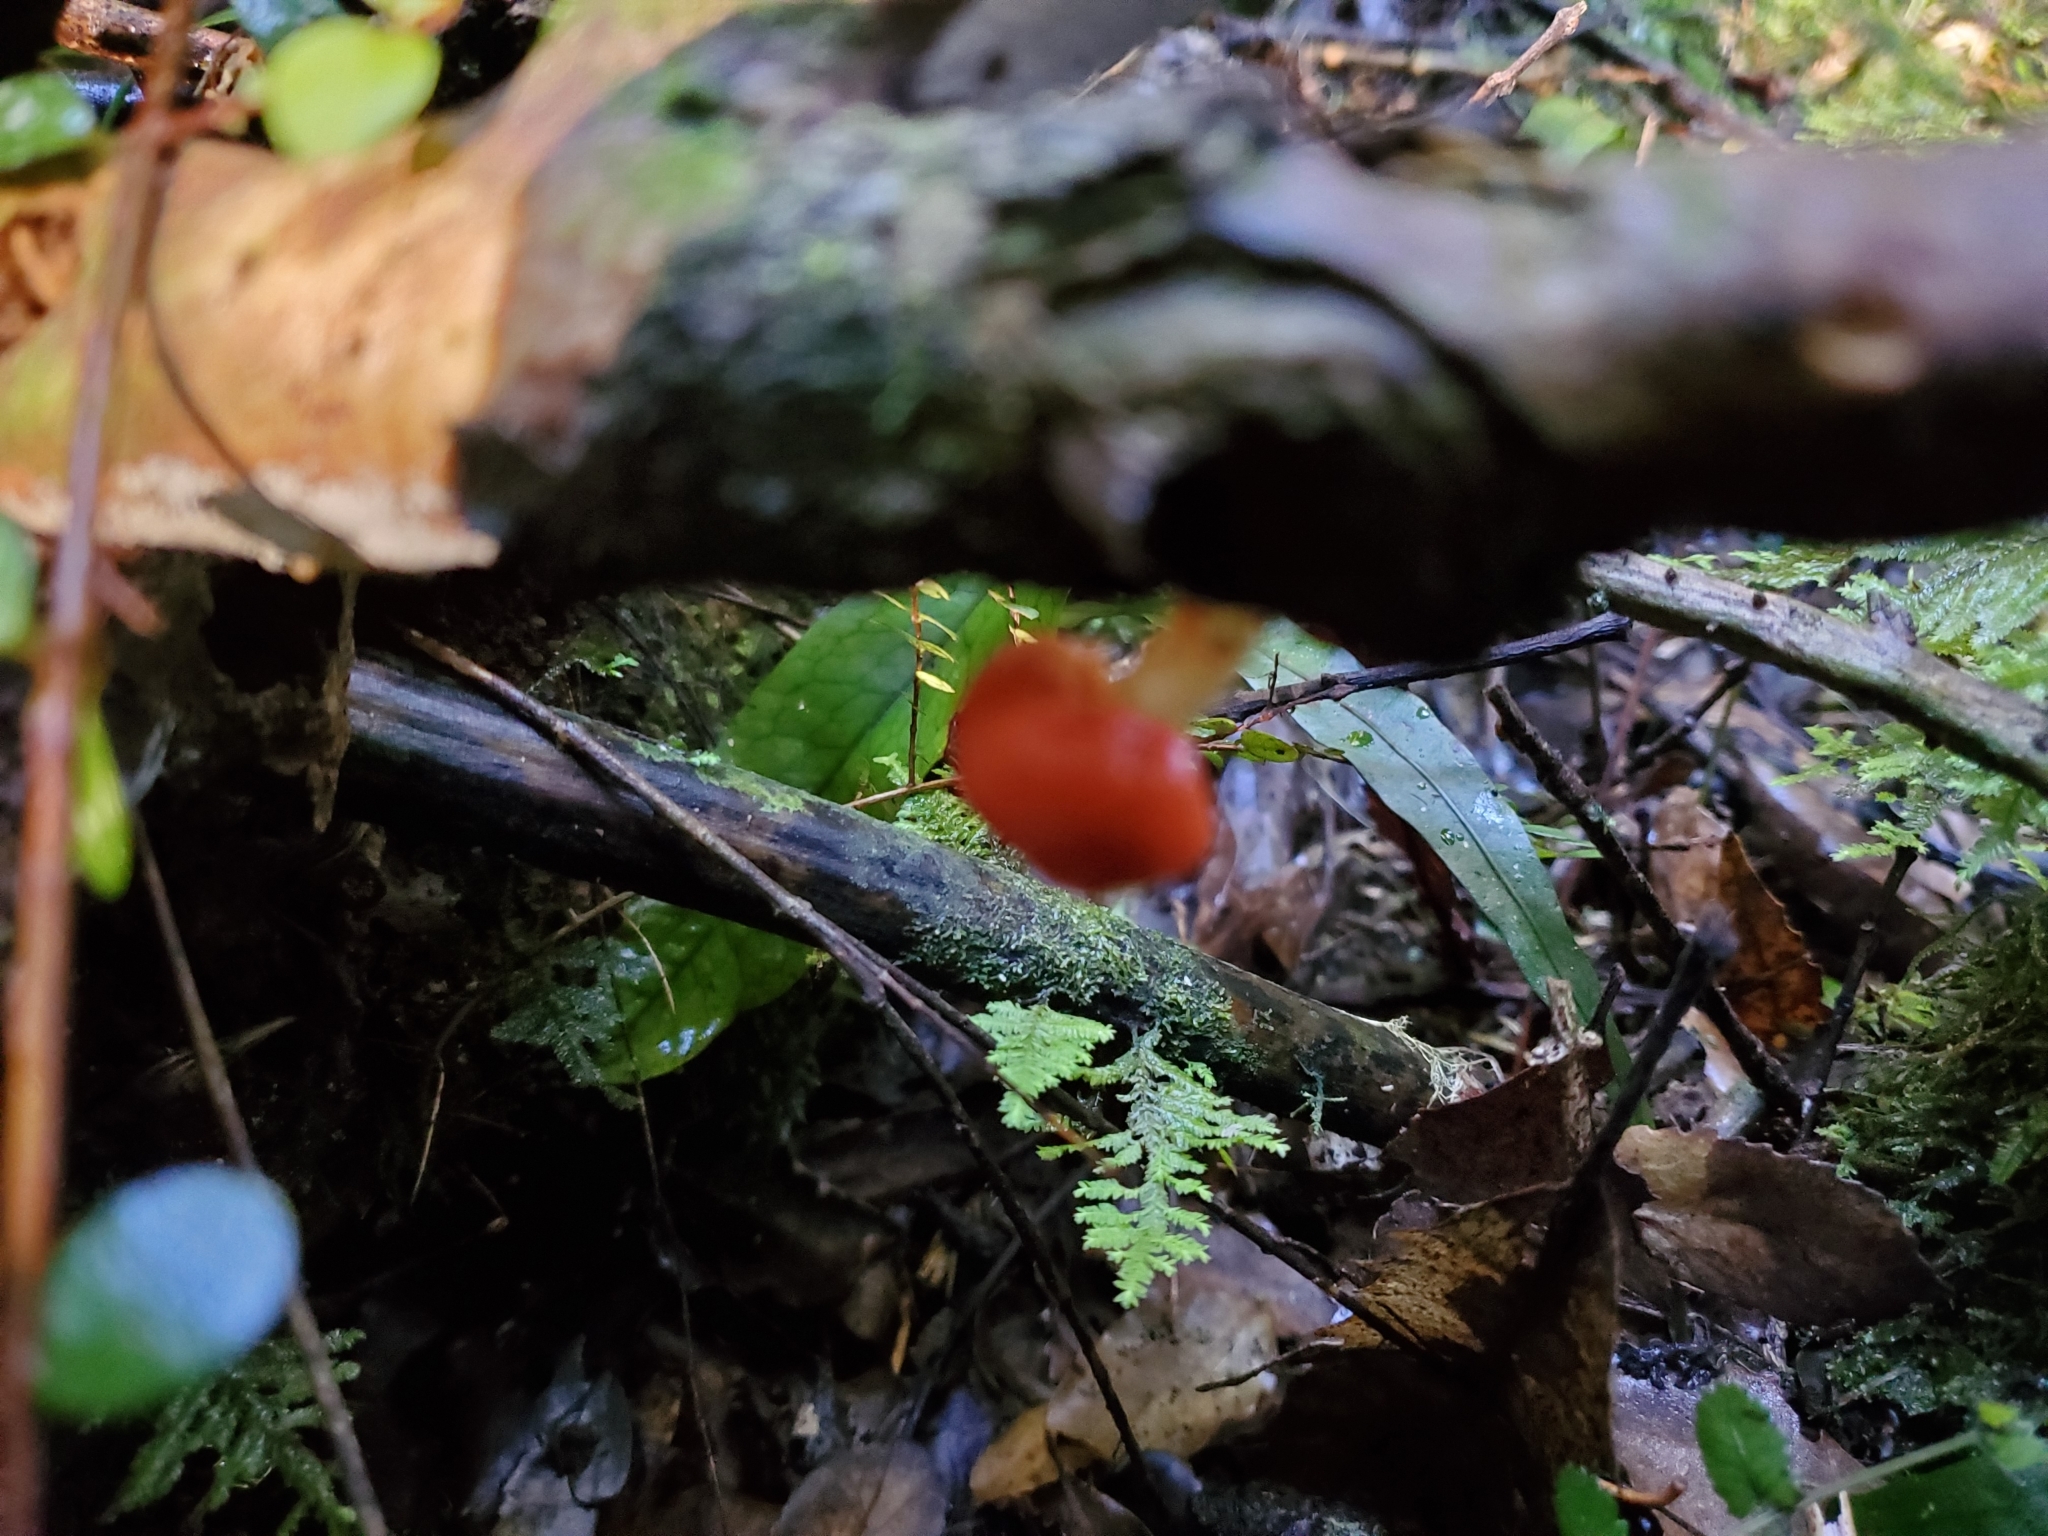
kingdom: Fungi
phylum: Basidiomycota
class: Agaricomycetes
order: Agaricales
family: Strophariaceae
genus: Leratiomyces
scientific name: Leratiomyces erythrocephalus
